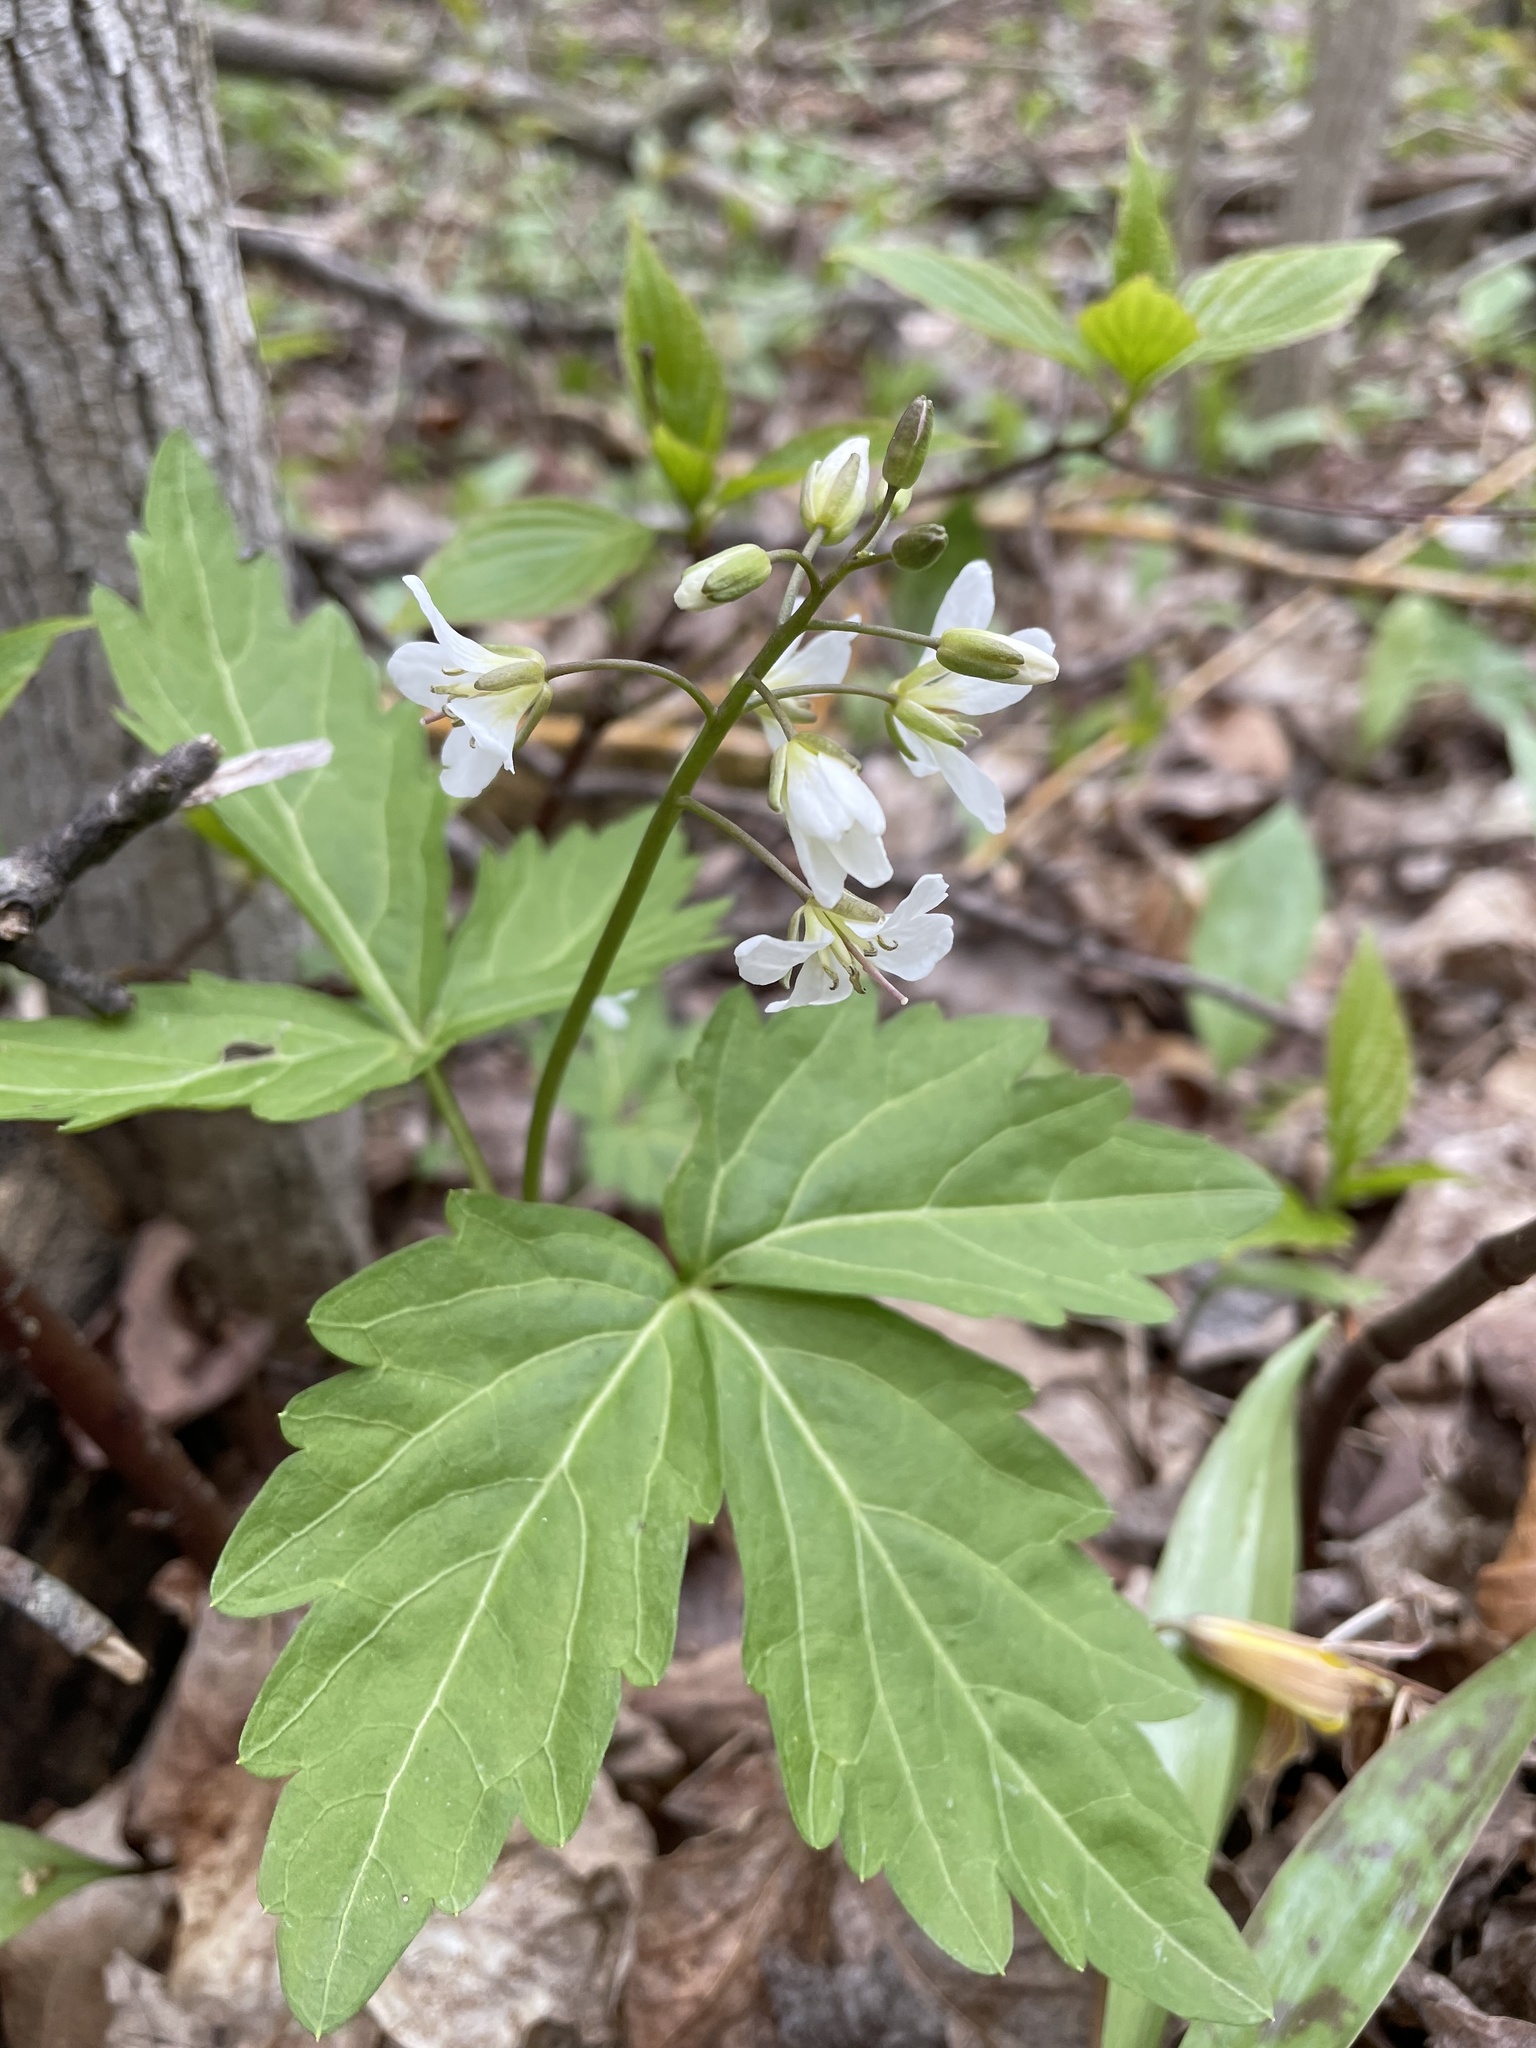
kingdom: Plantae
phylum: Tracheophyta
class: Magnoliopsida
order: Brassicales
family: Brassicaceae
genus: Cardamine
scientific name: Cardamine diphylla
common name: Broad-leaved toothwort
